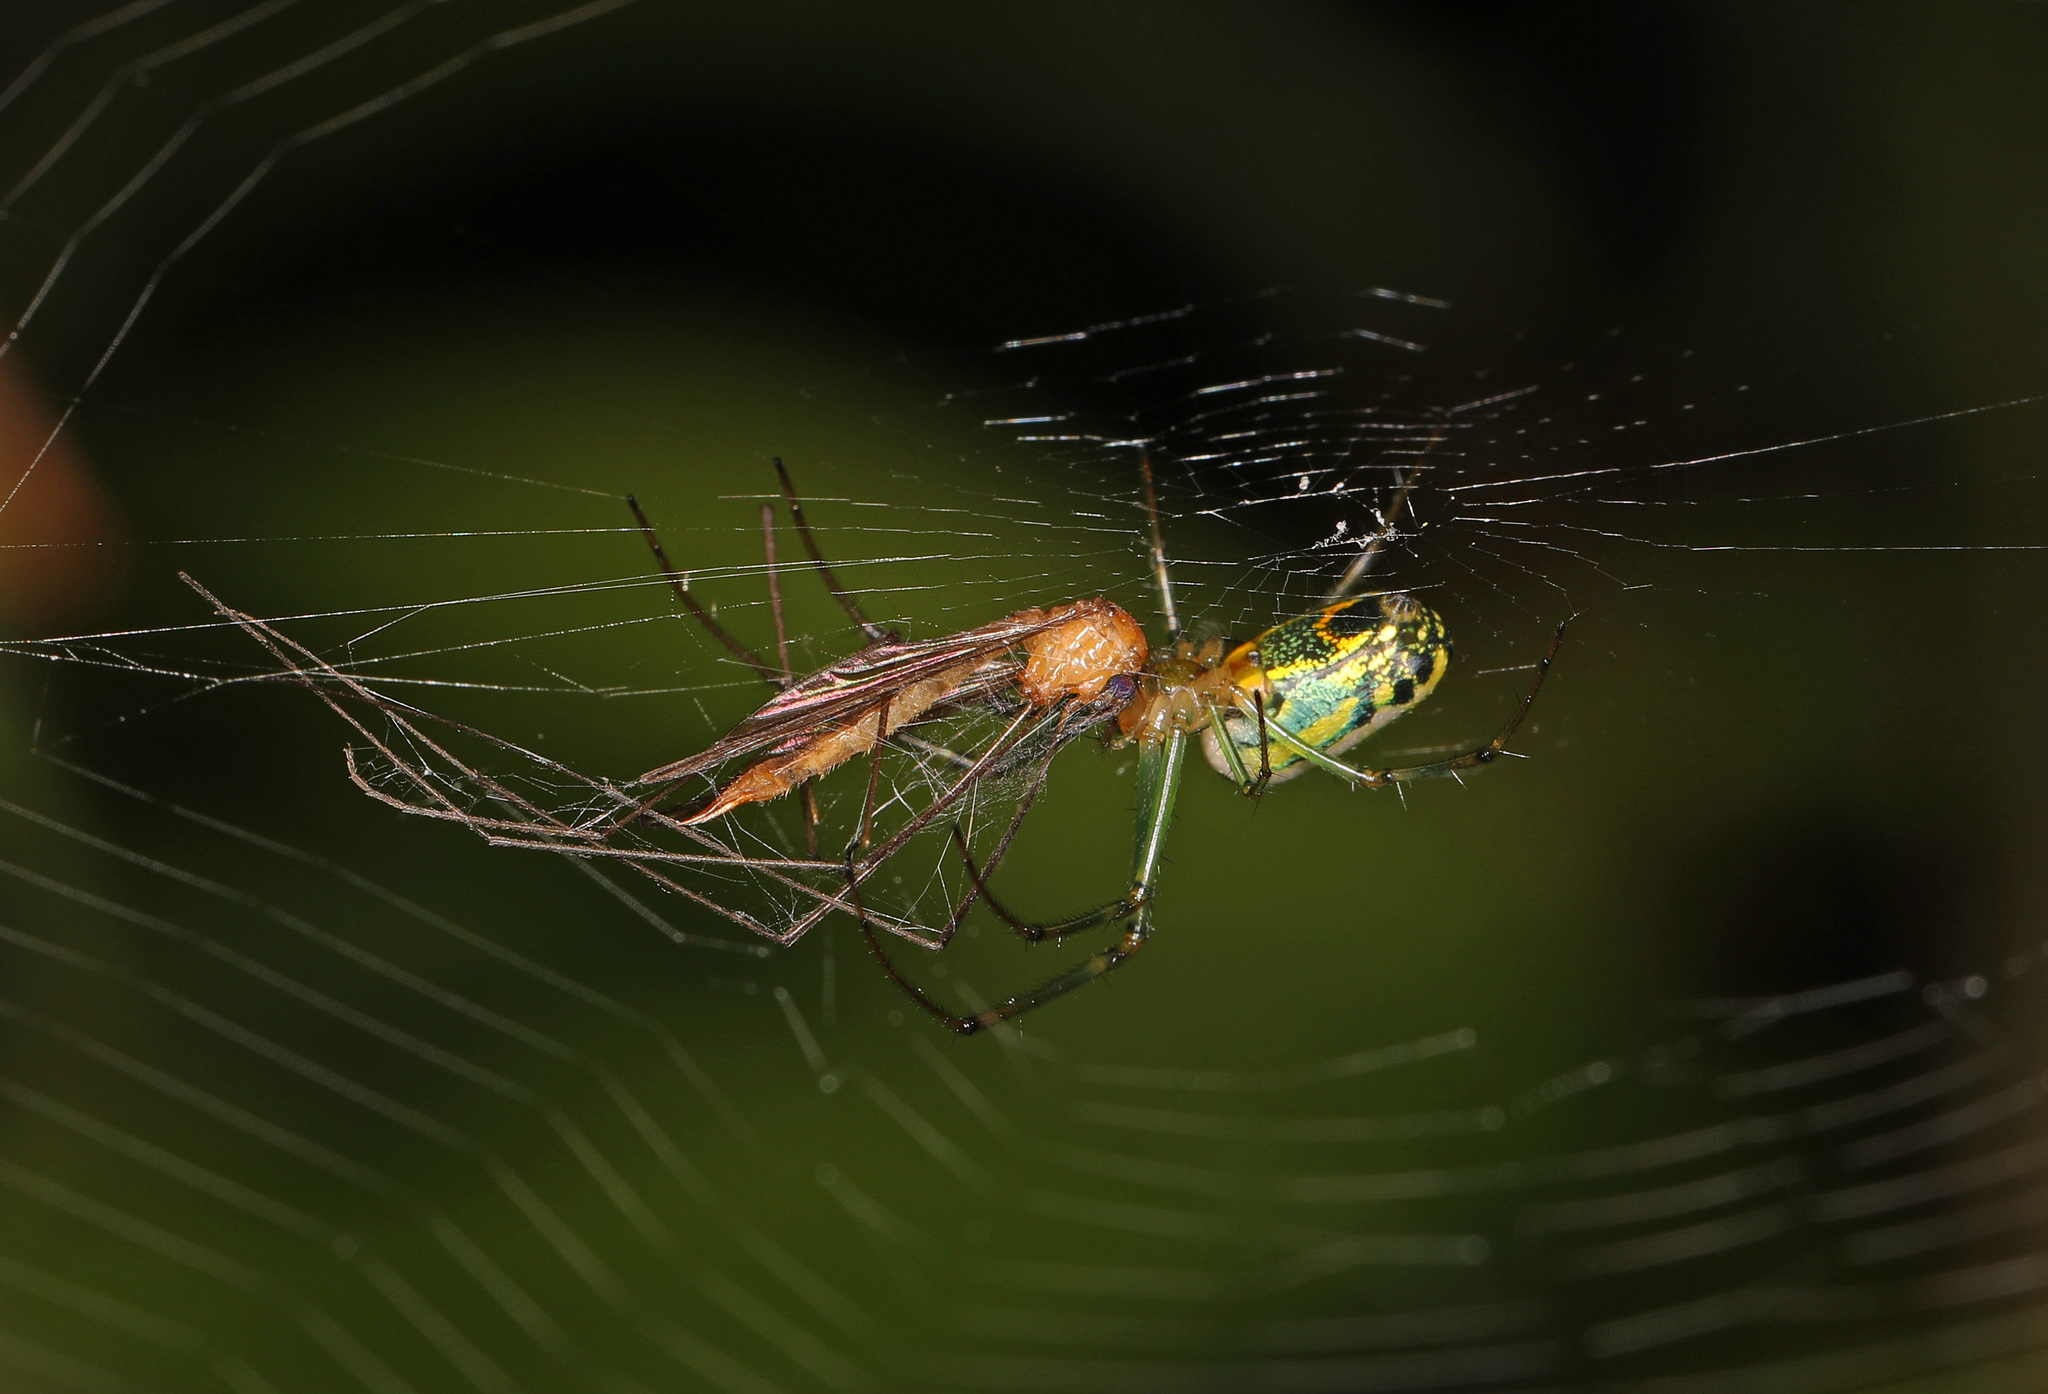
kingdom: Animalia
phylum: Arthropoda
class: Arachnida
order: Araneae
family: Tetragnathidae
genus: Leucauge
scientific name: Leucauge venusta
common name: Longjawed orb weavers
